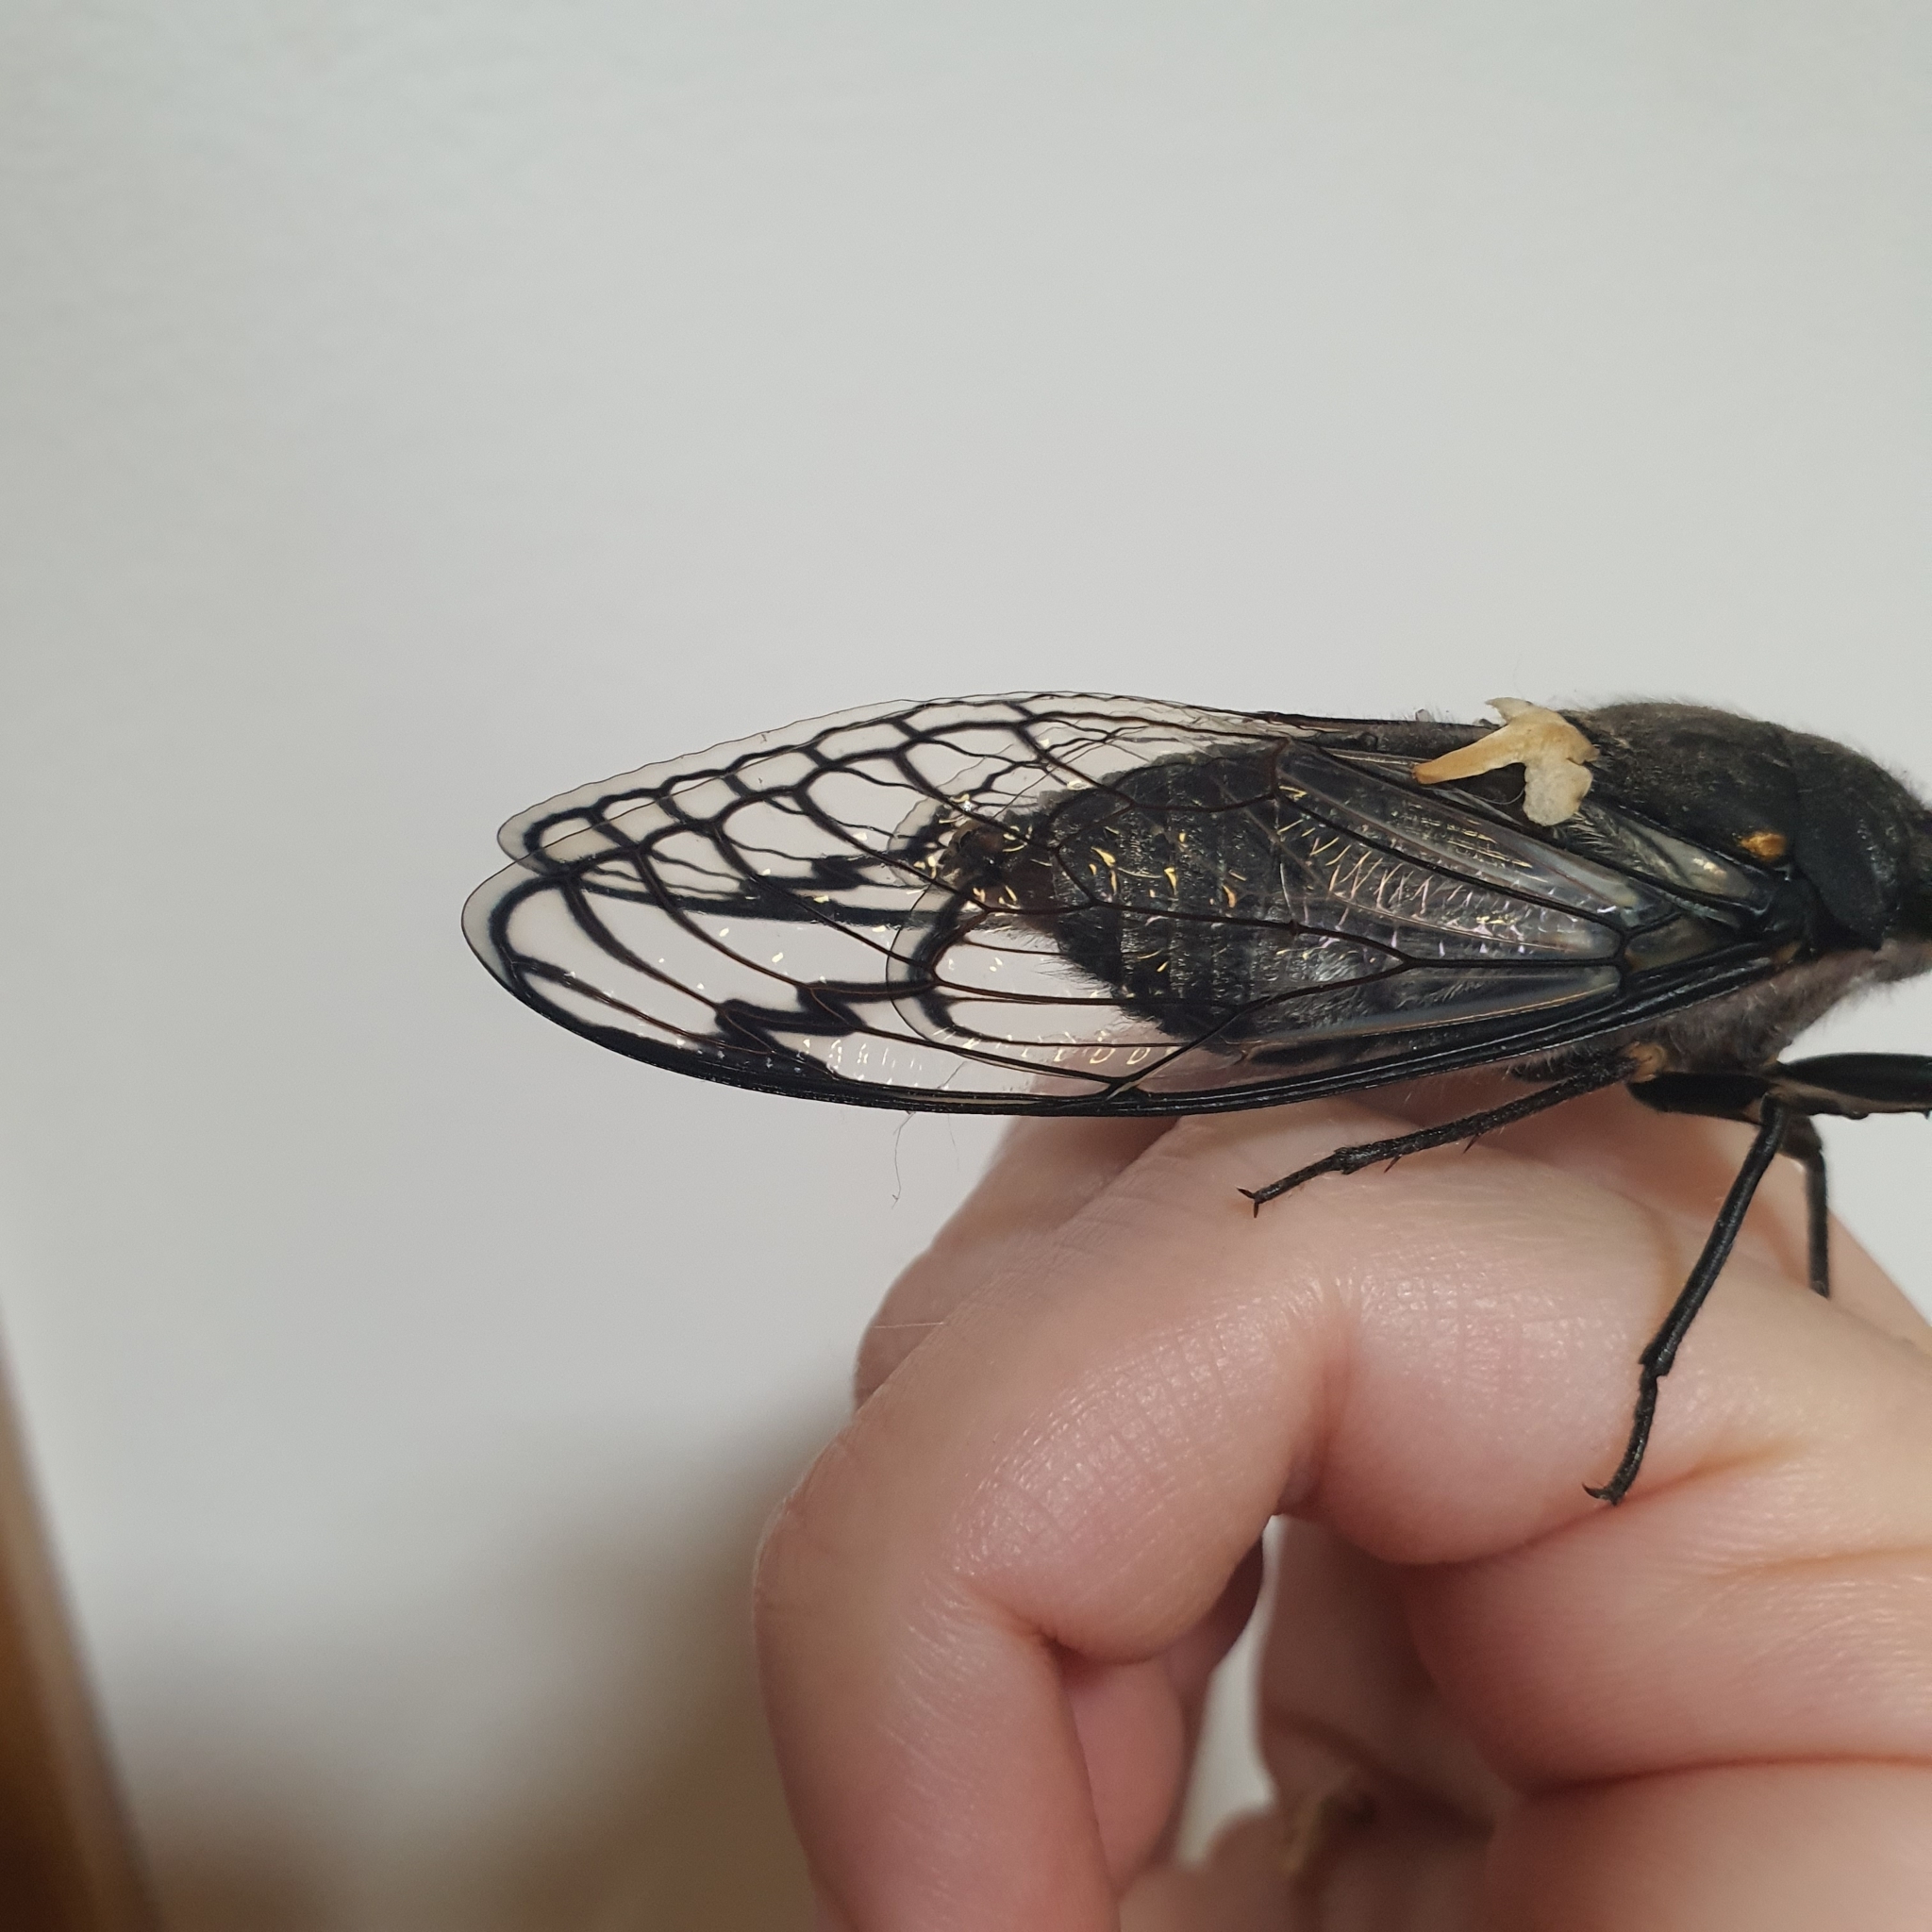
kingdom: Animalia
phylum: Arthropoda
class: Insecta
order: Hemiptera
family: Cicadidae
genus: Psaltoda
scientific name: Psaltoda moerens
